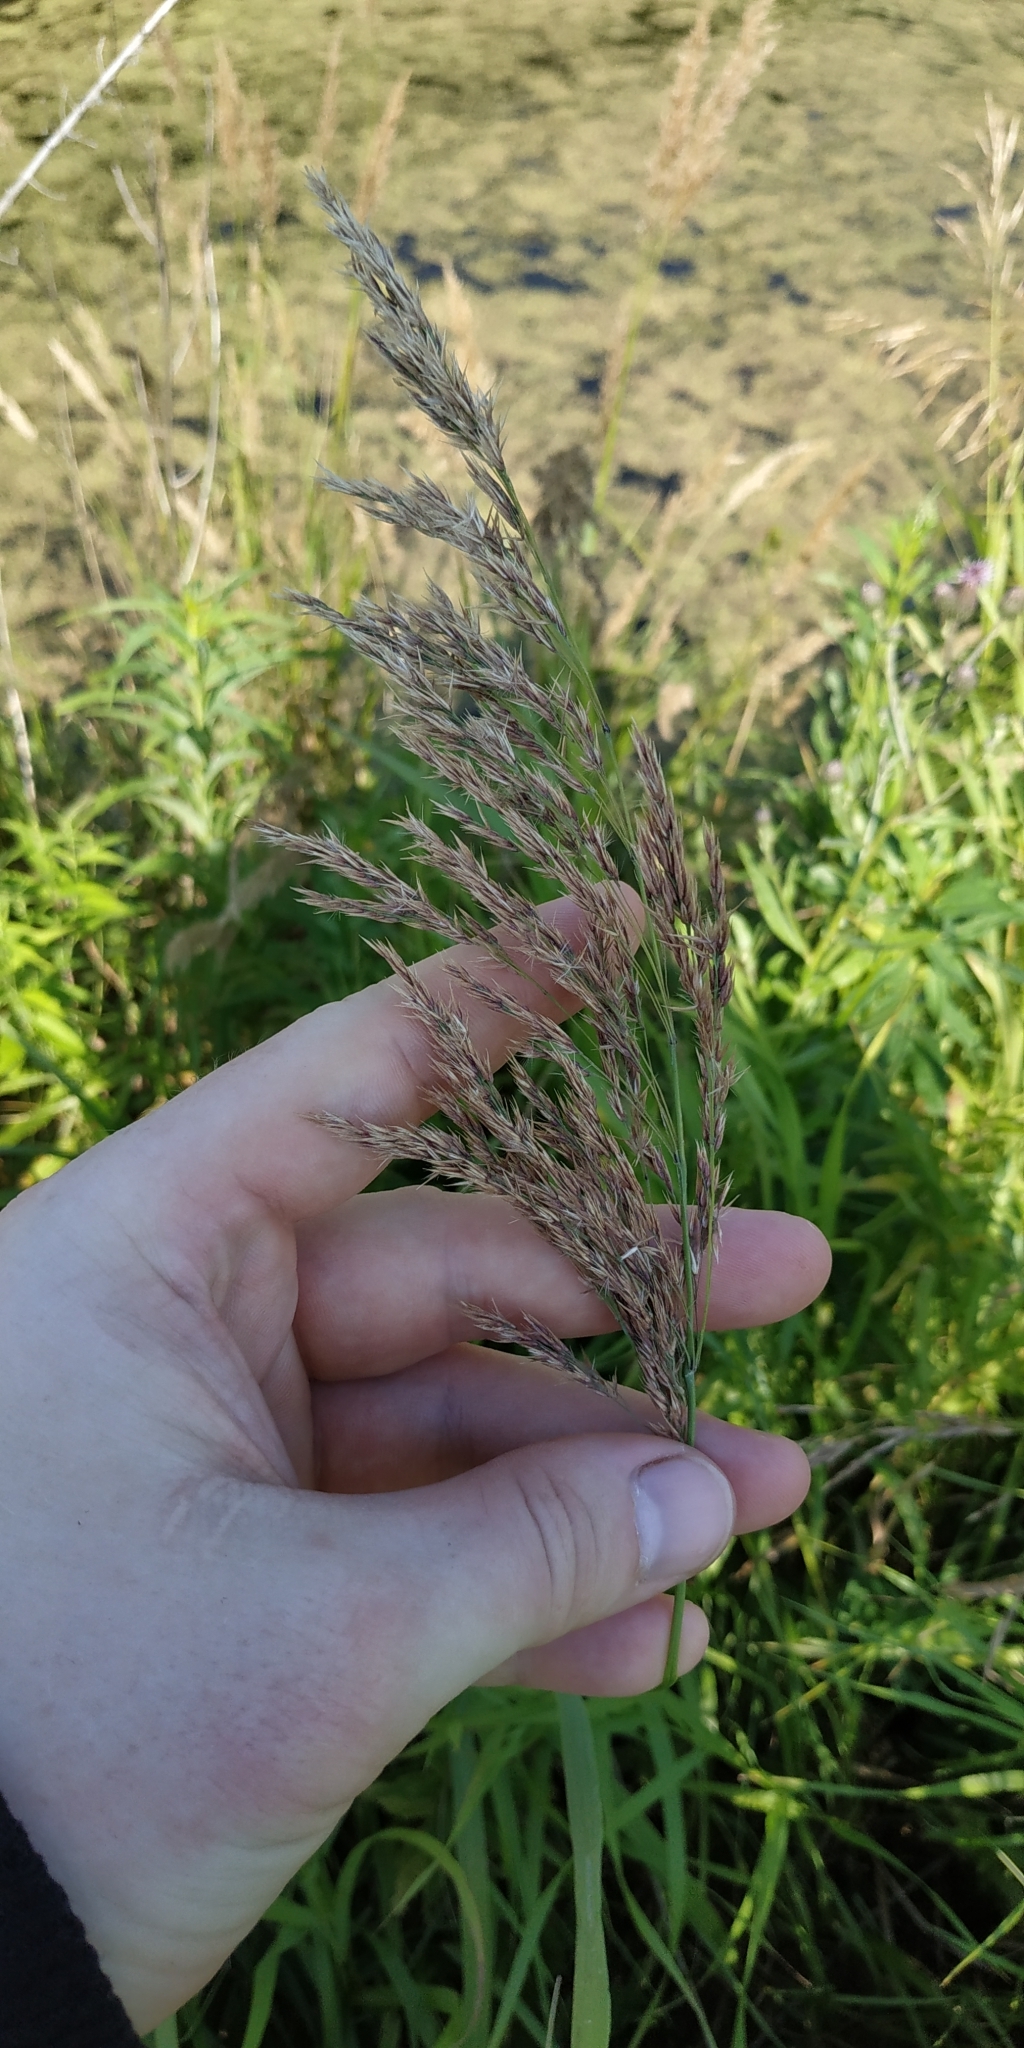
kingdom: Plantae
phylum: Tracheophyta
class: Liliopsida
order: Poales
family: Poaceae
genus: Calamagrostis
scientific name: Calamagrostis purpurea
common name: Scandinavian small-reed
